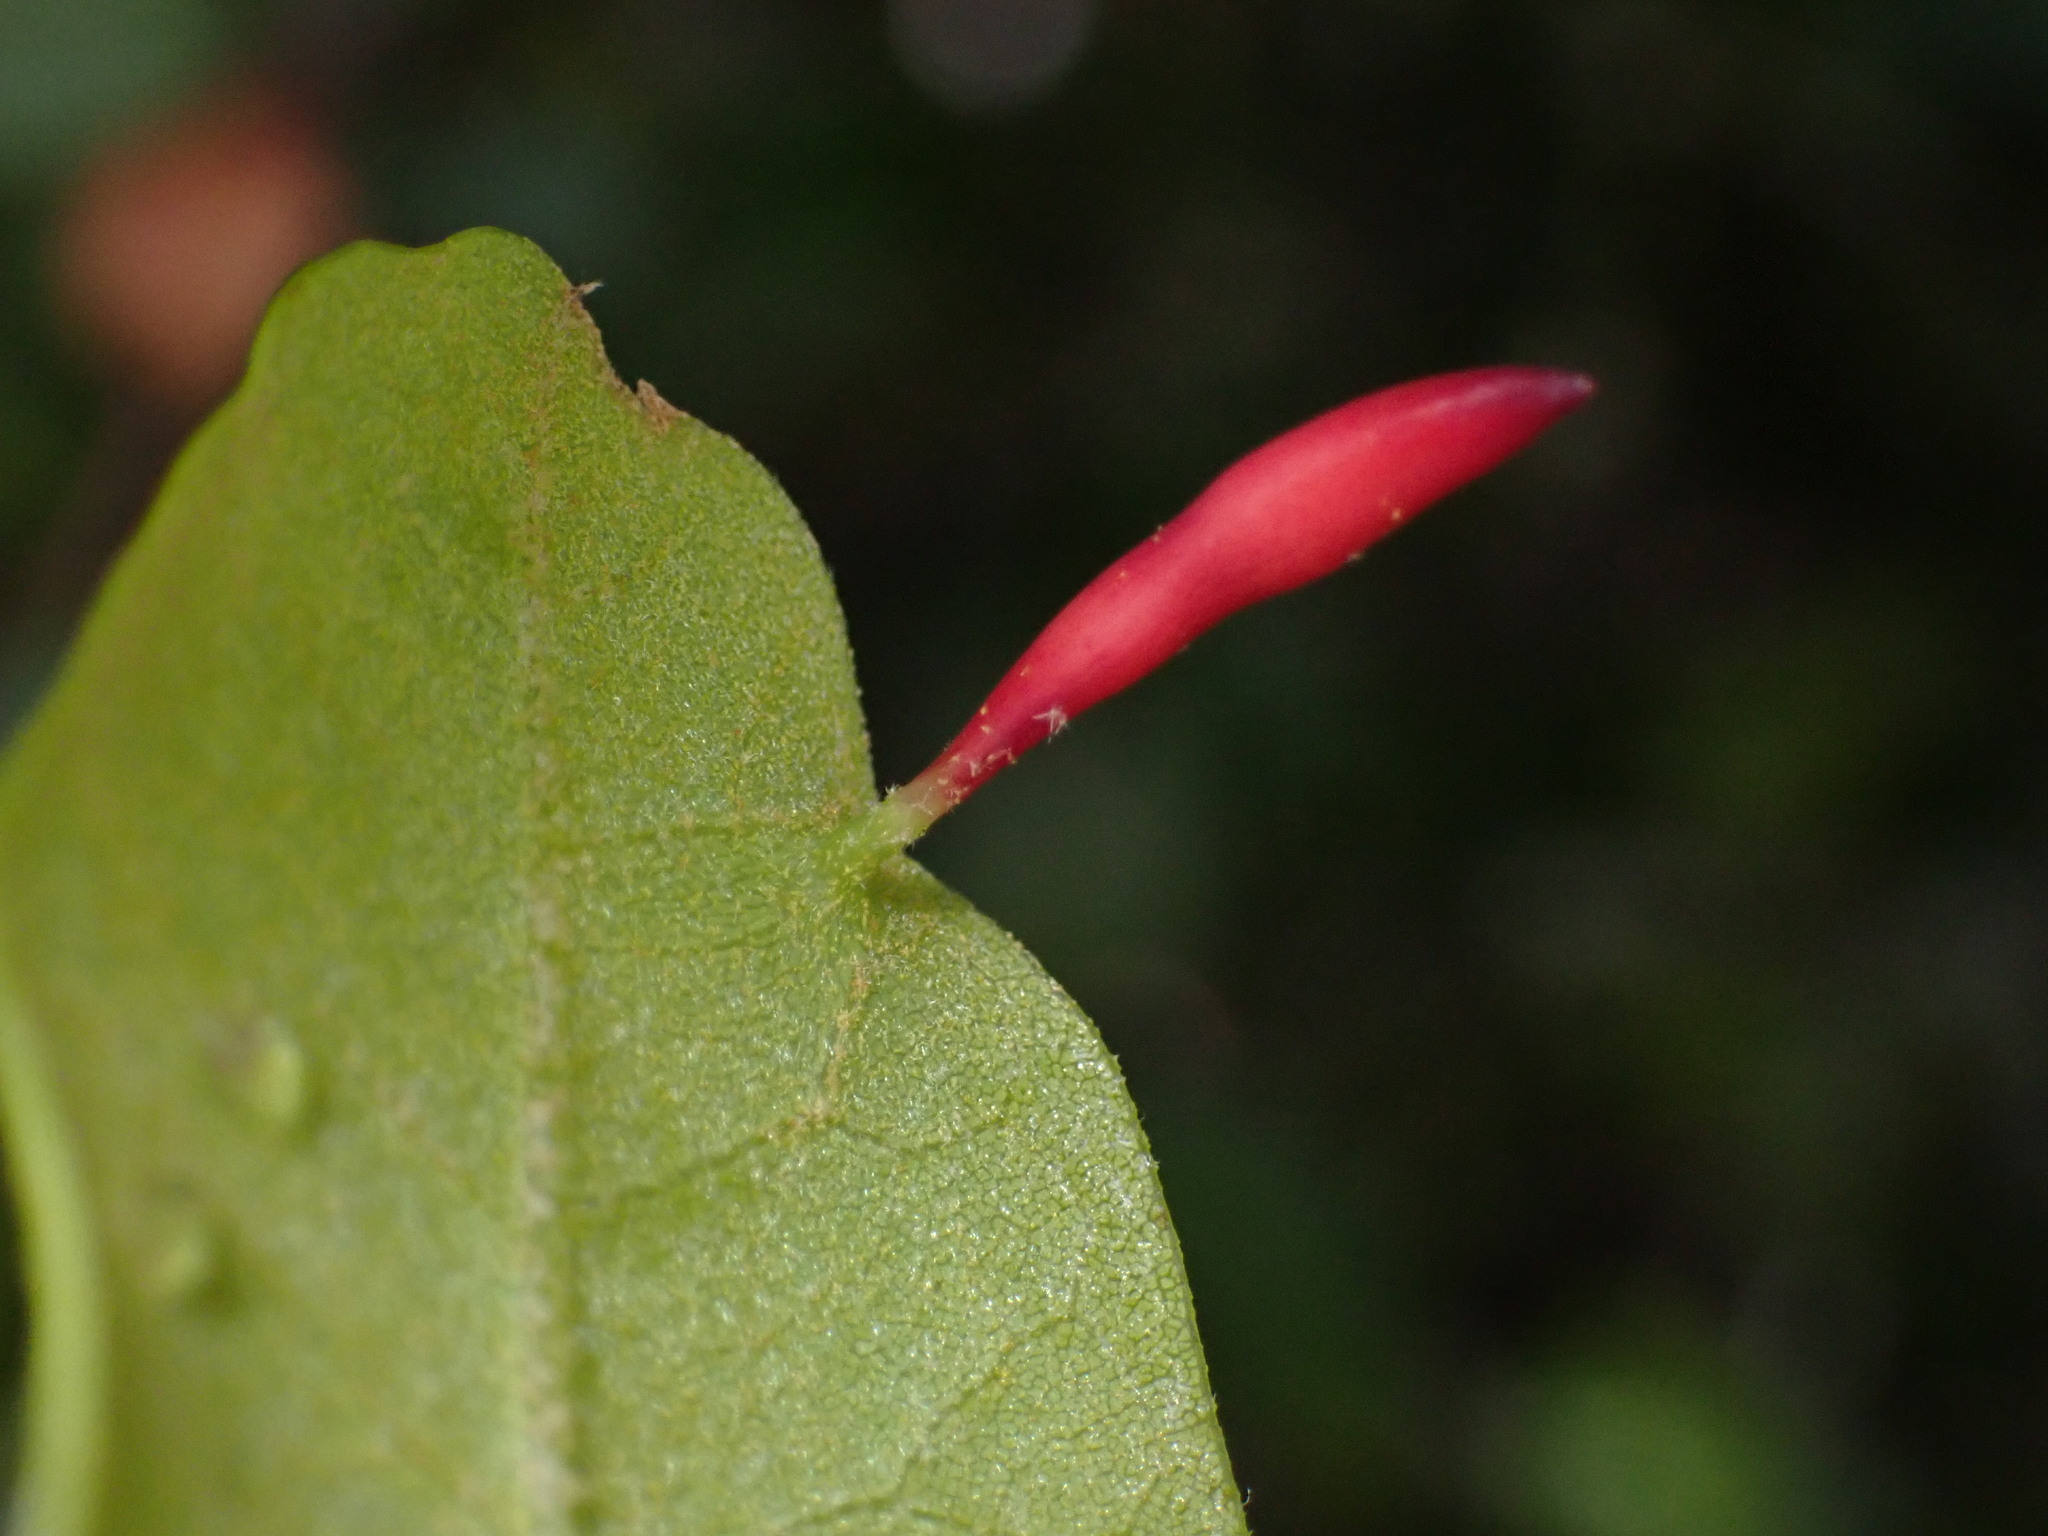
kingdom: Animalia
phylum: Arthropoda
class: Insecta
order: Hymenoptera
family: Cynipidae
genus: Heteroecus
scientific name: Heteroecus
